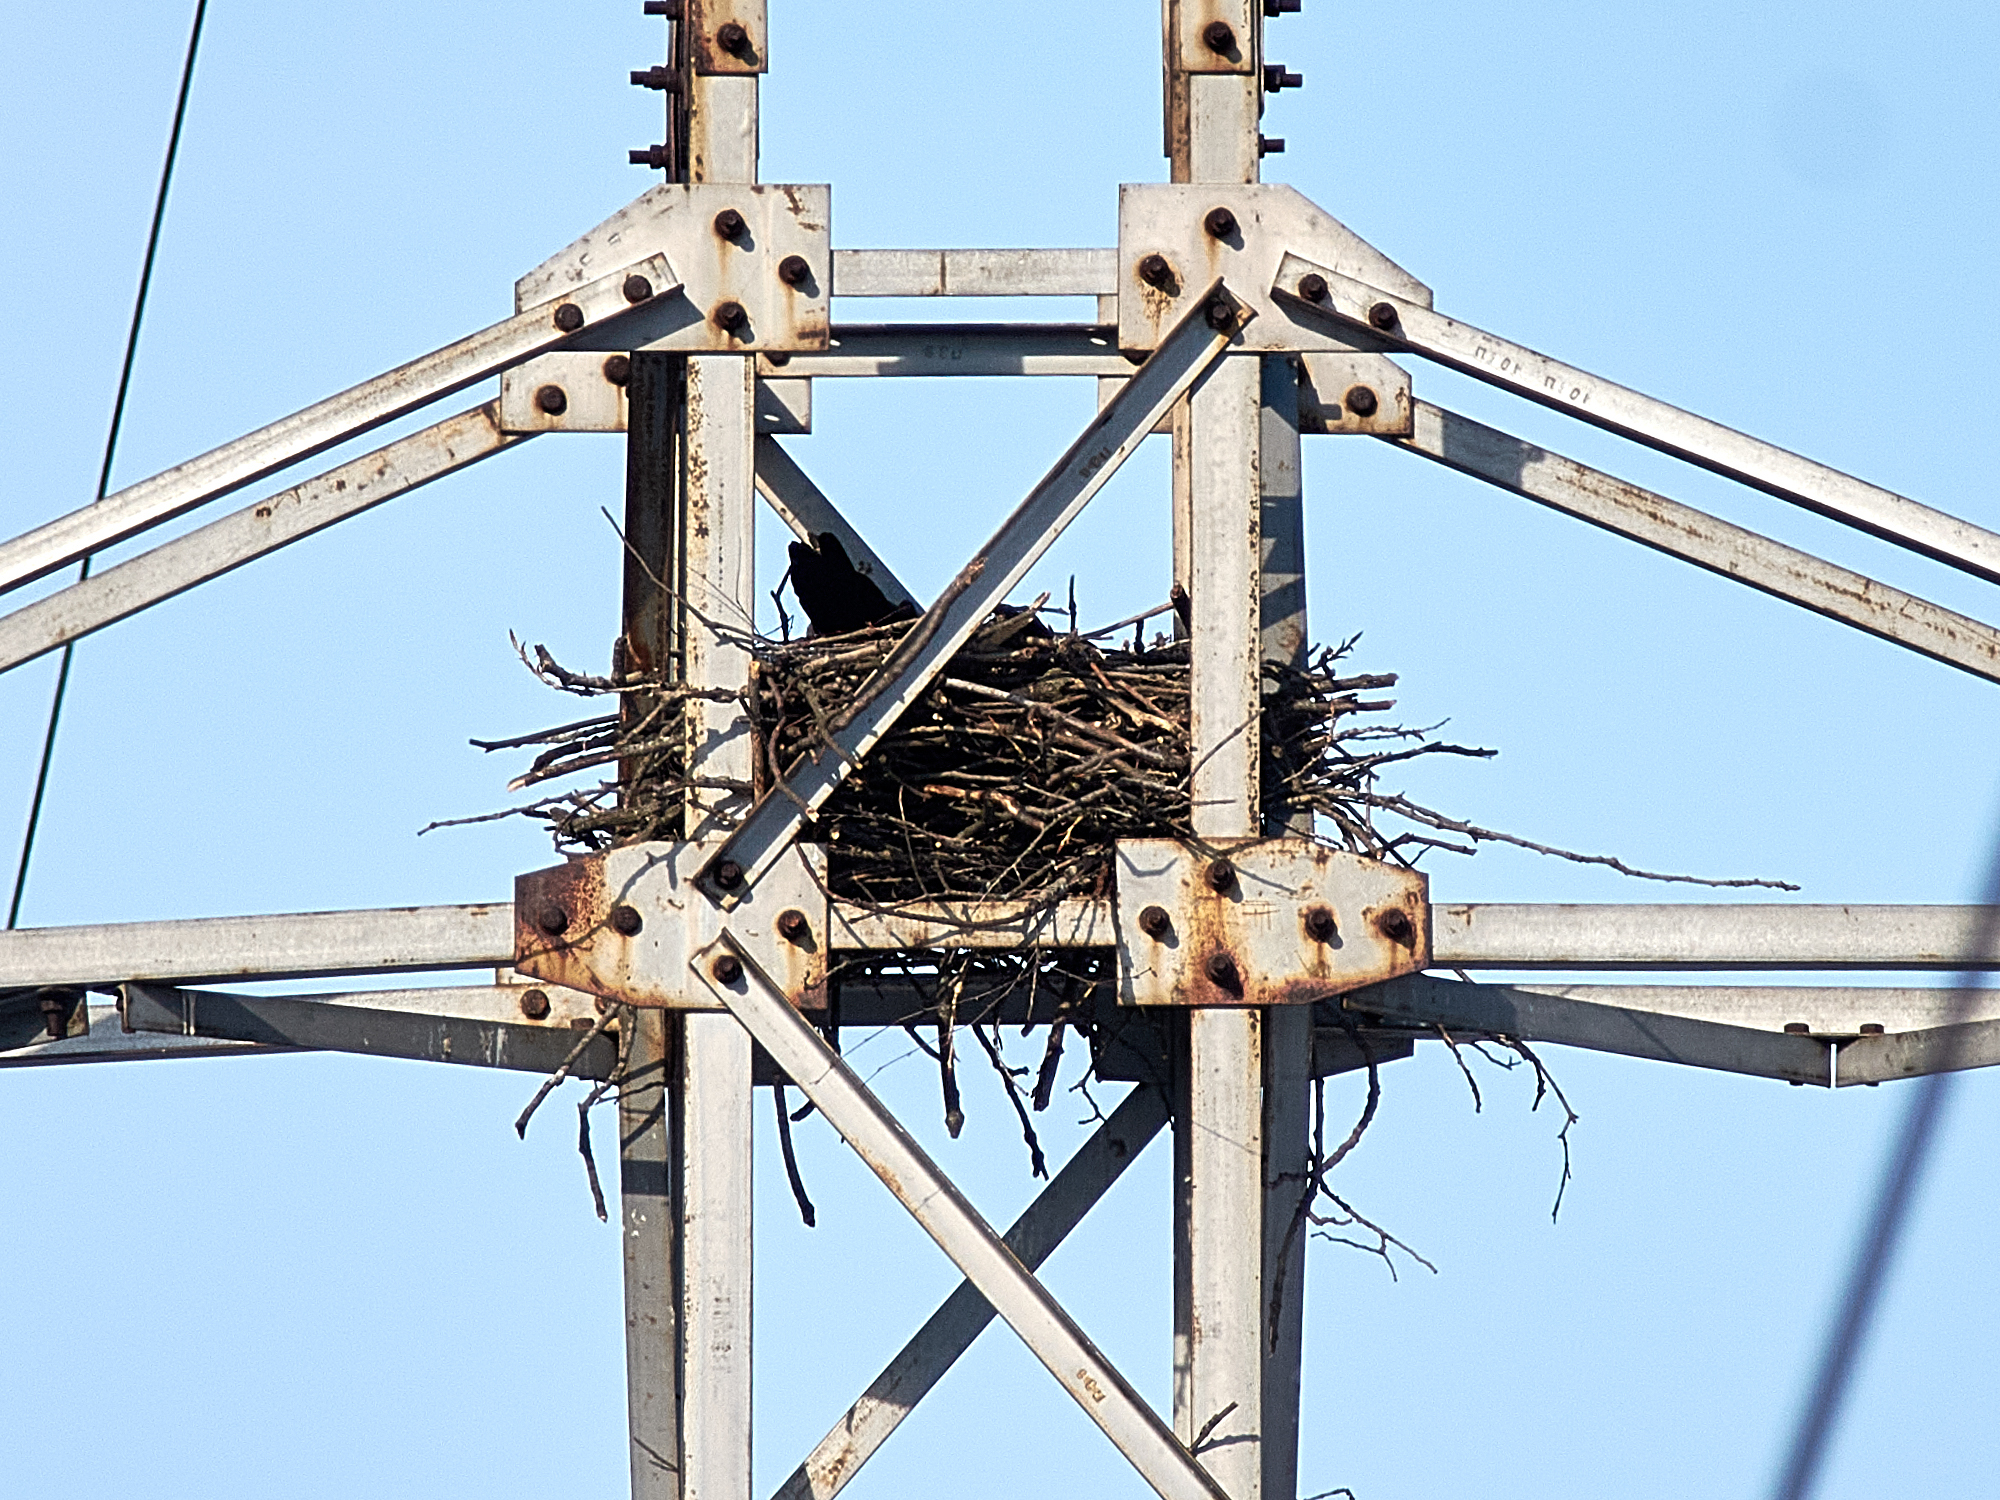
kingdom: Animalia
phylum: Chordata
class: Aves
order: Passeriformes
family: Corvidae
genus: Corvus
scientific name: Corvus corax
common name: Common raven
